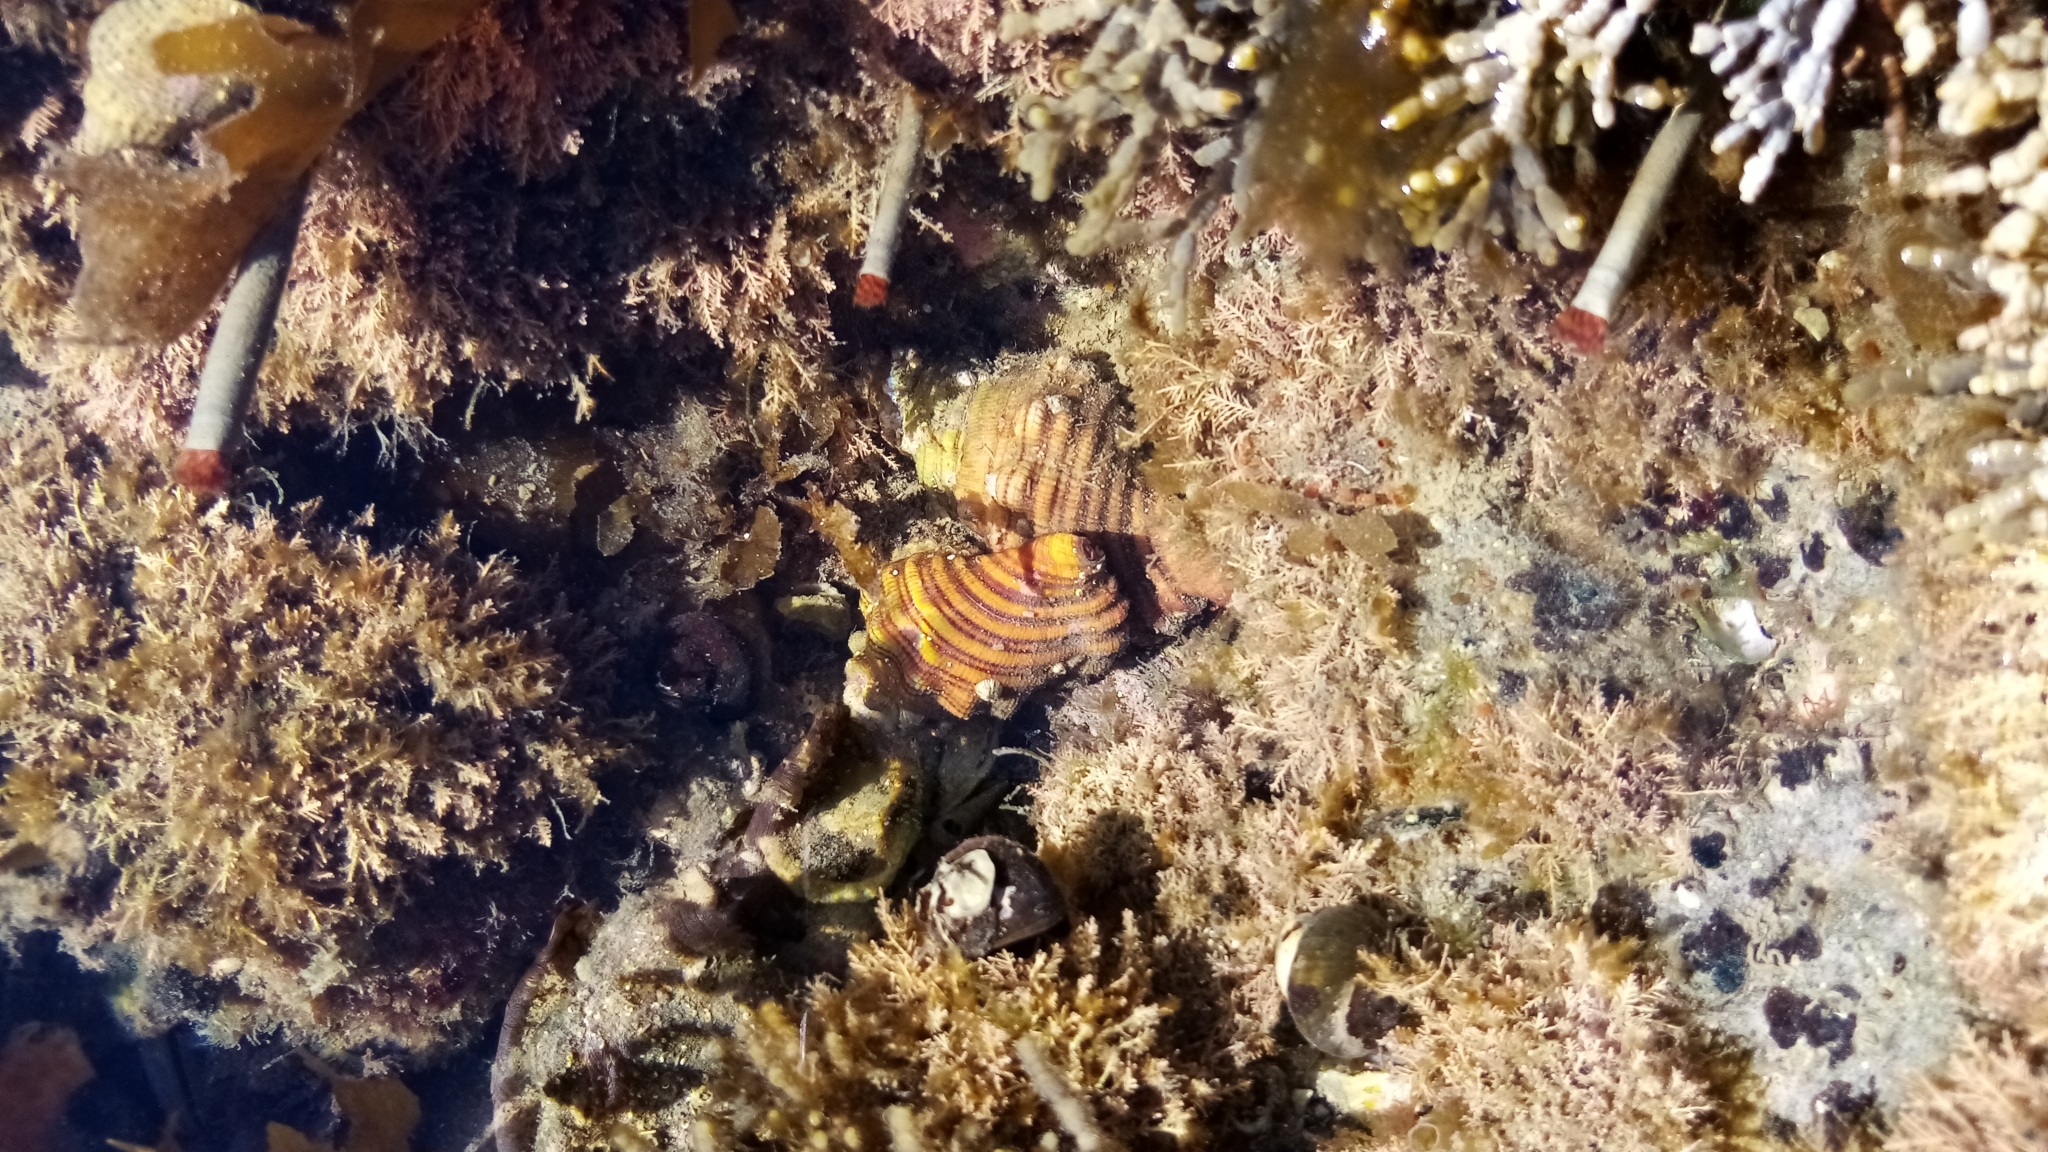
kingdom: Animalia
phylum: Mollusca
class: Gastropoda
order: Littorinimorpha
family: Cymatiidae
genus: Cabestana
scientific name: Cabestana spengleri
